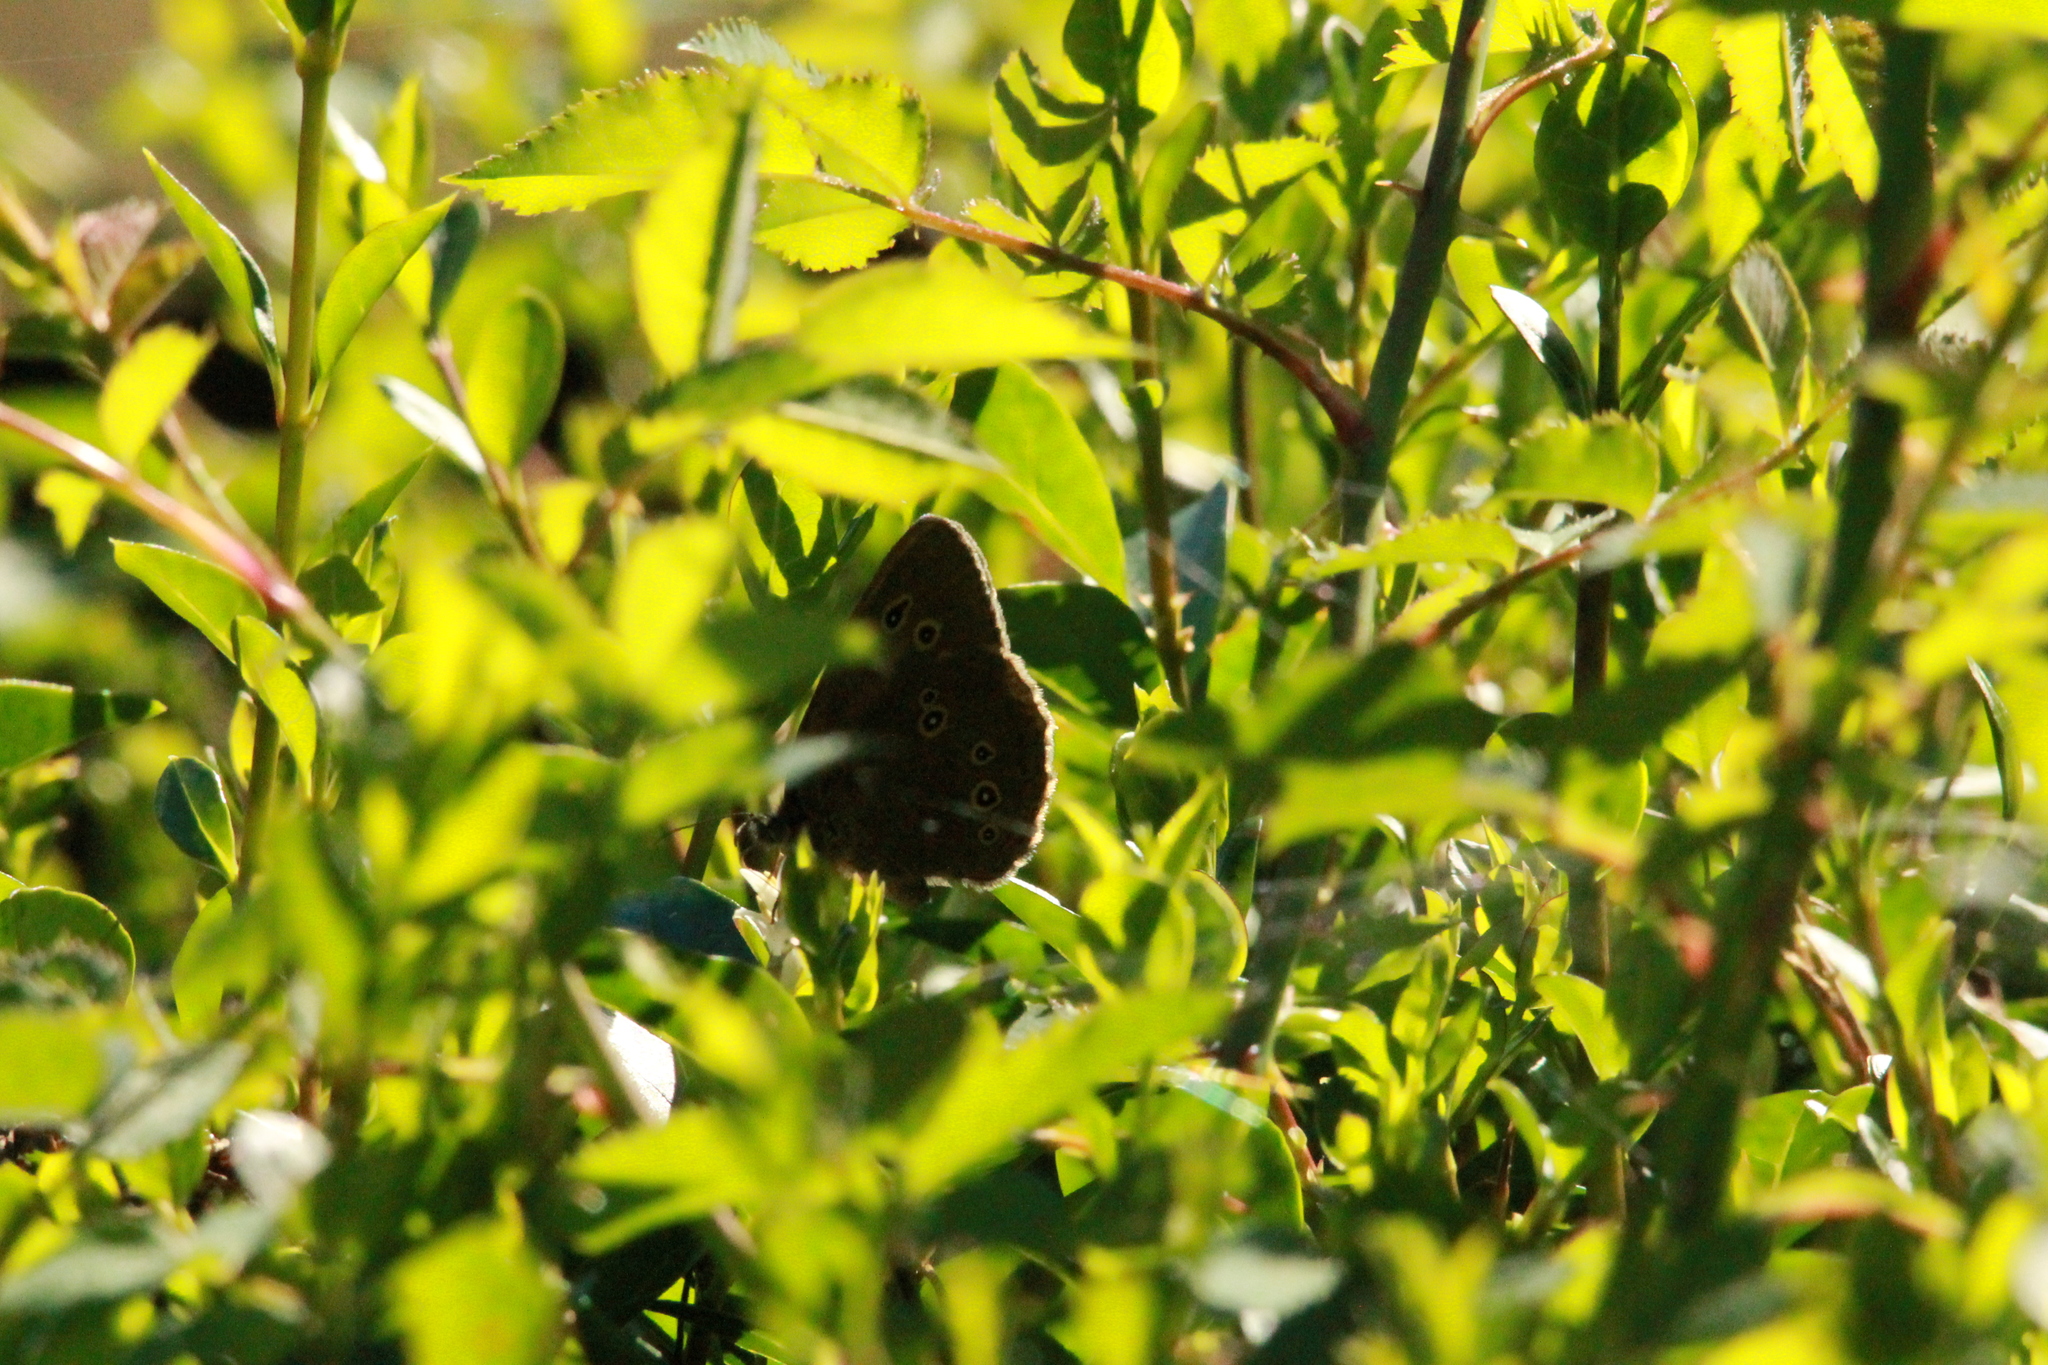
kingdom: Animalia
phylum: Arthropoda
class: Insecta
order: Lepidoptera
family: Nymphalidae
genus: Aphantopus
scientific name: Aphantopus hyperantus
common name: Ringlet
